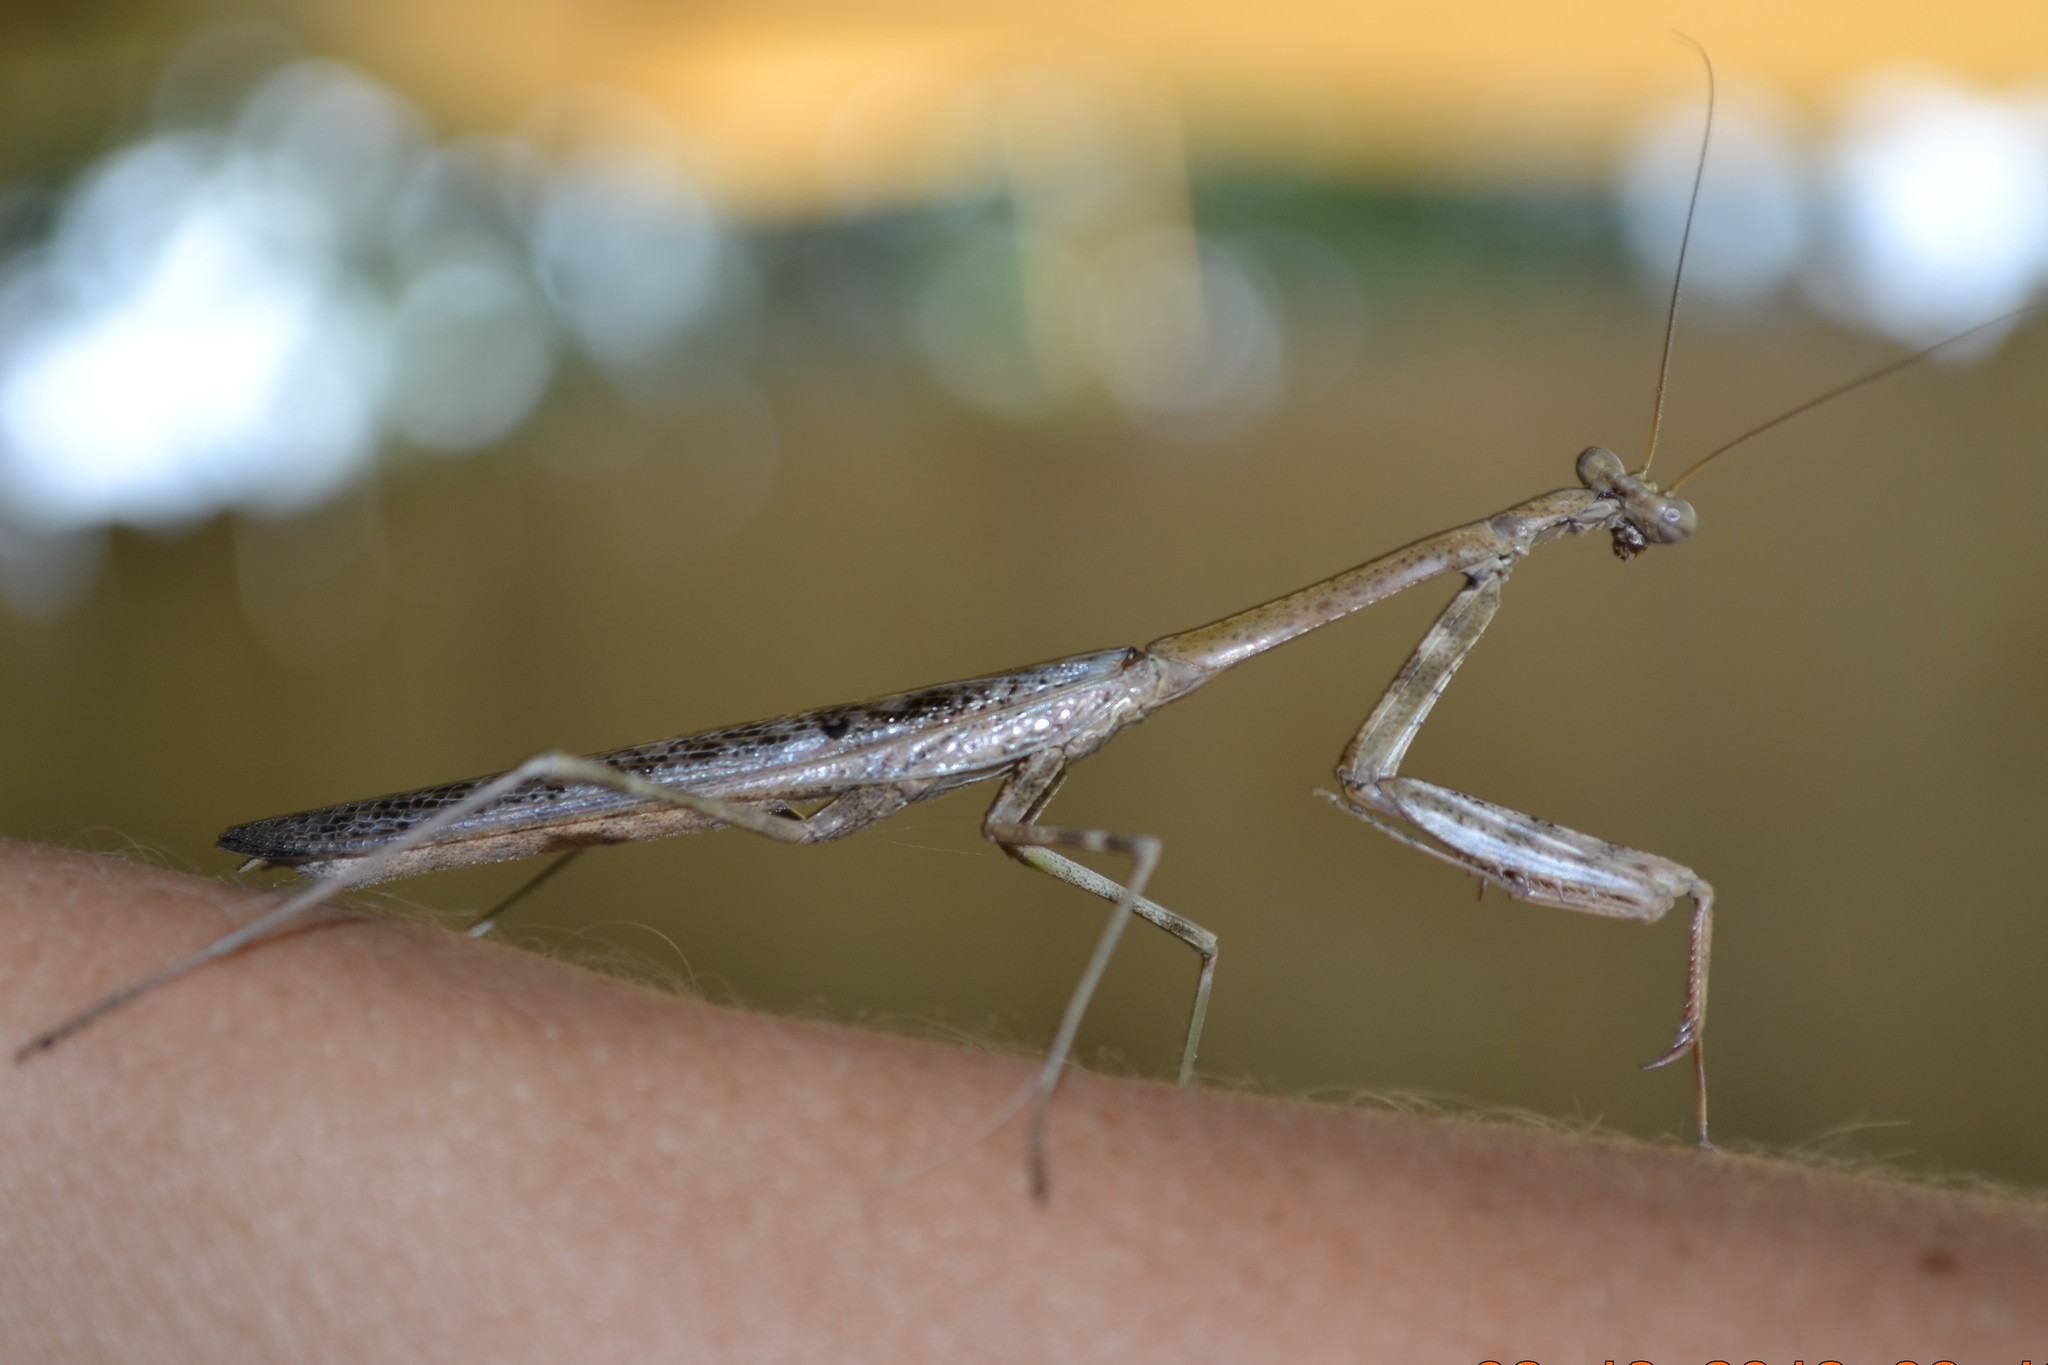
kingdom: Animalia
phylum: Arthropoda
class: Insecta
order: Mantodea
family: Mantidae
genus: Stagmomantis
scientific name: Stagmomantis carolina
